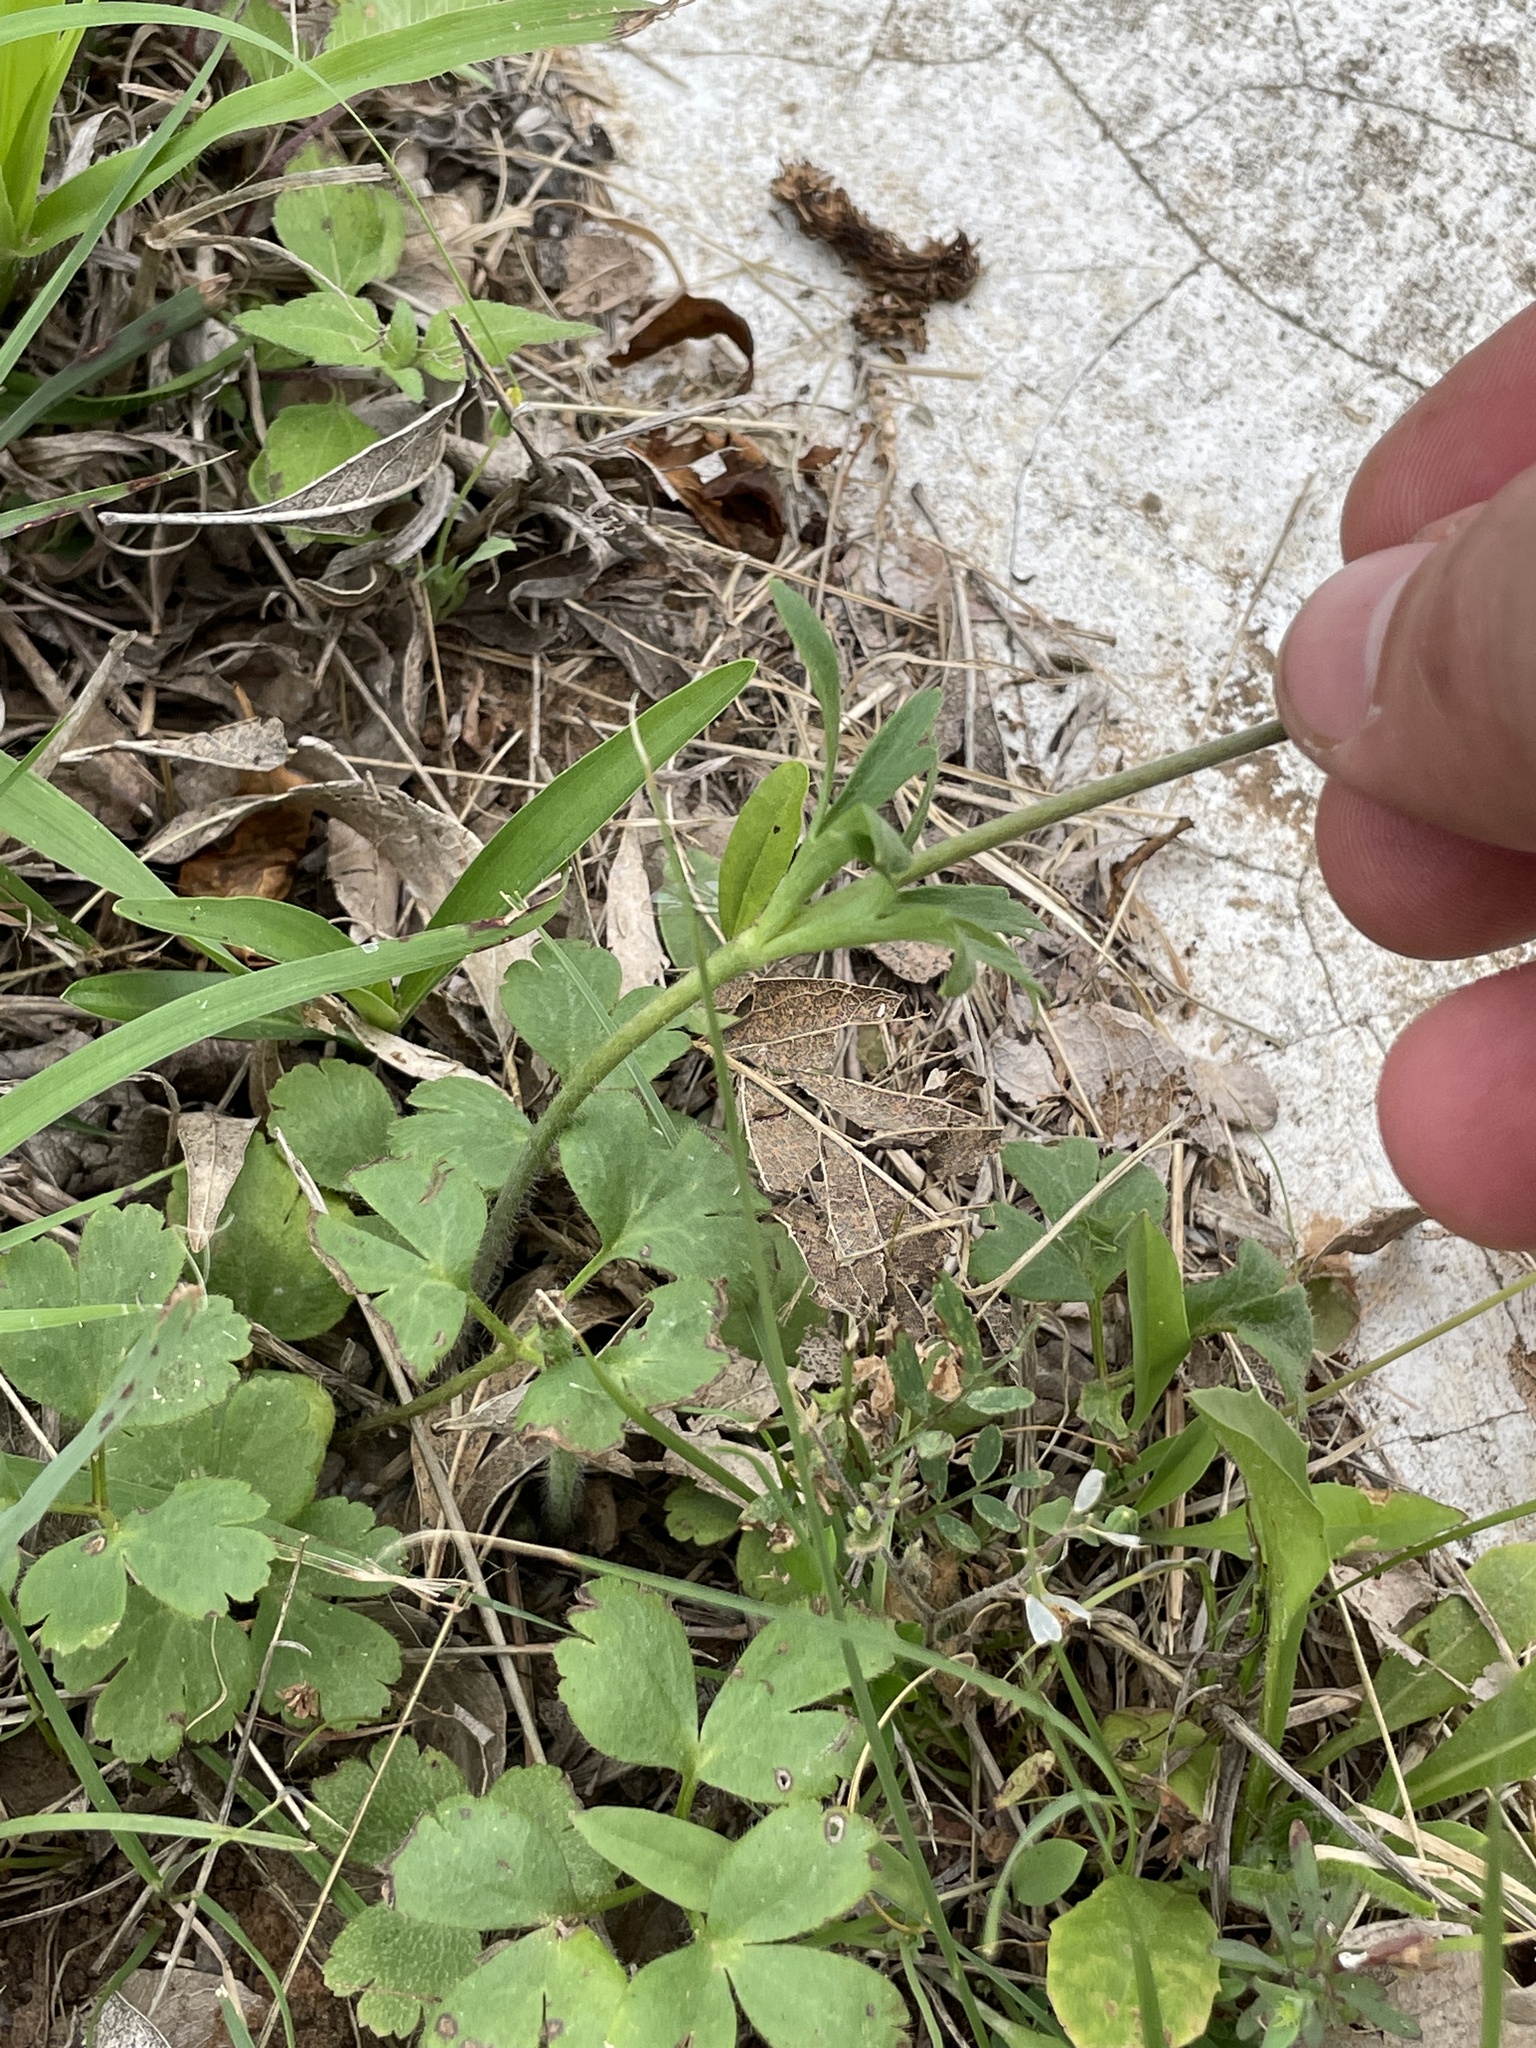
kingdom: Plantae
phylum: Tracheophyta
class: Magnoliopsida
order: Ranunculales
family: Ranunculaceae
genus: Anemone
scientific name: Anemone berlandieri
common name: Ten-petal anemone
